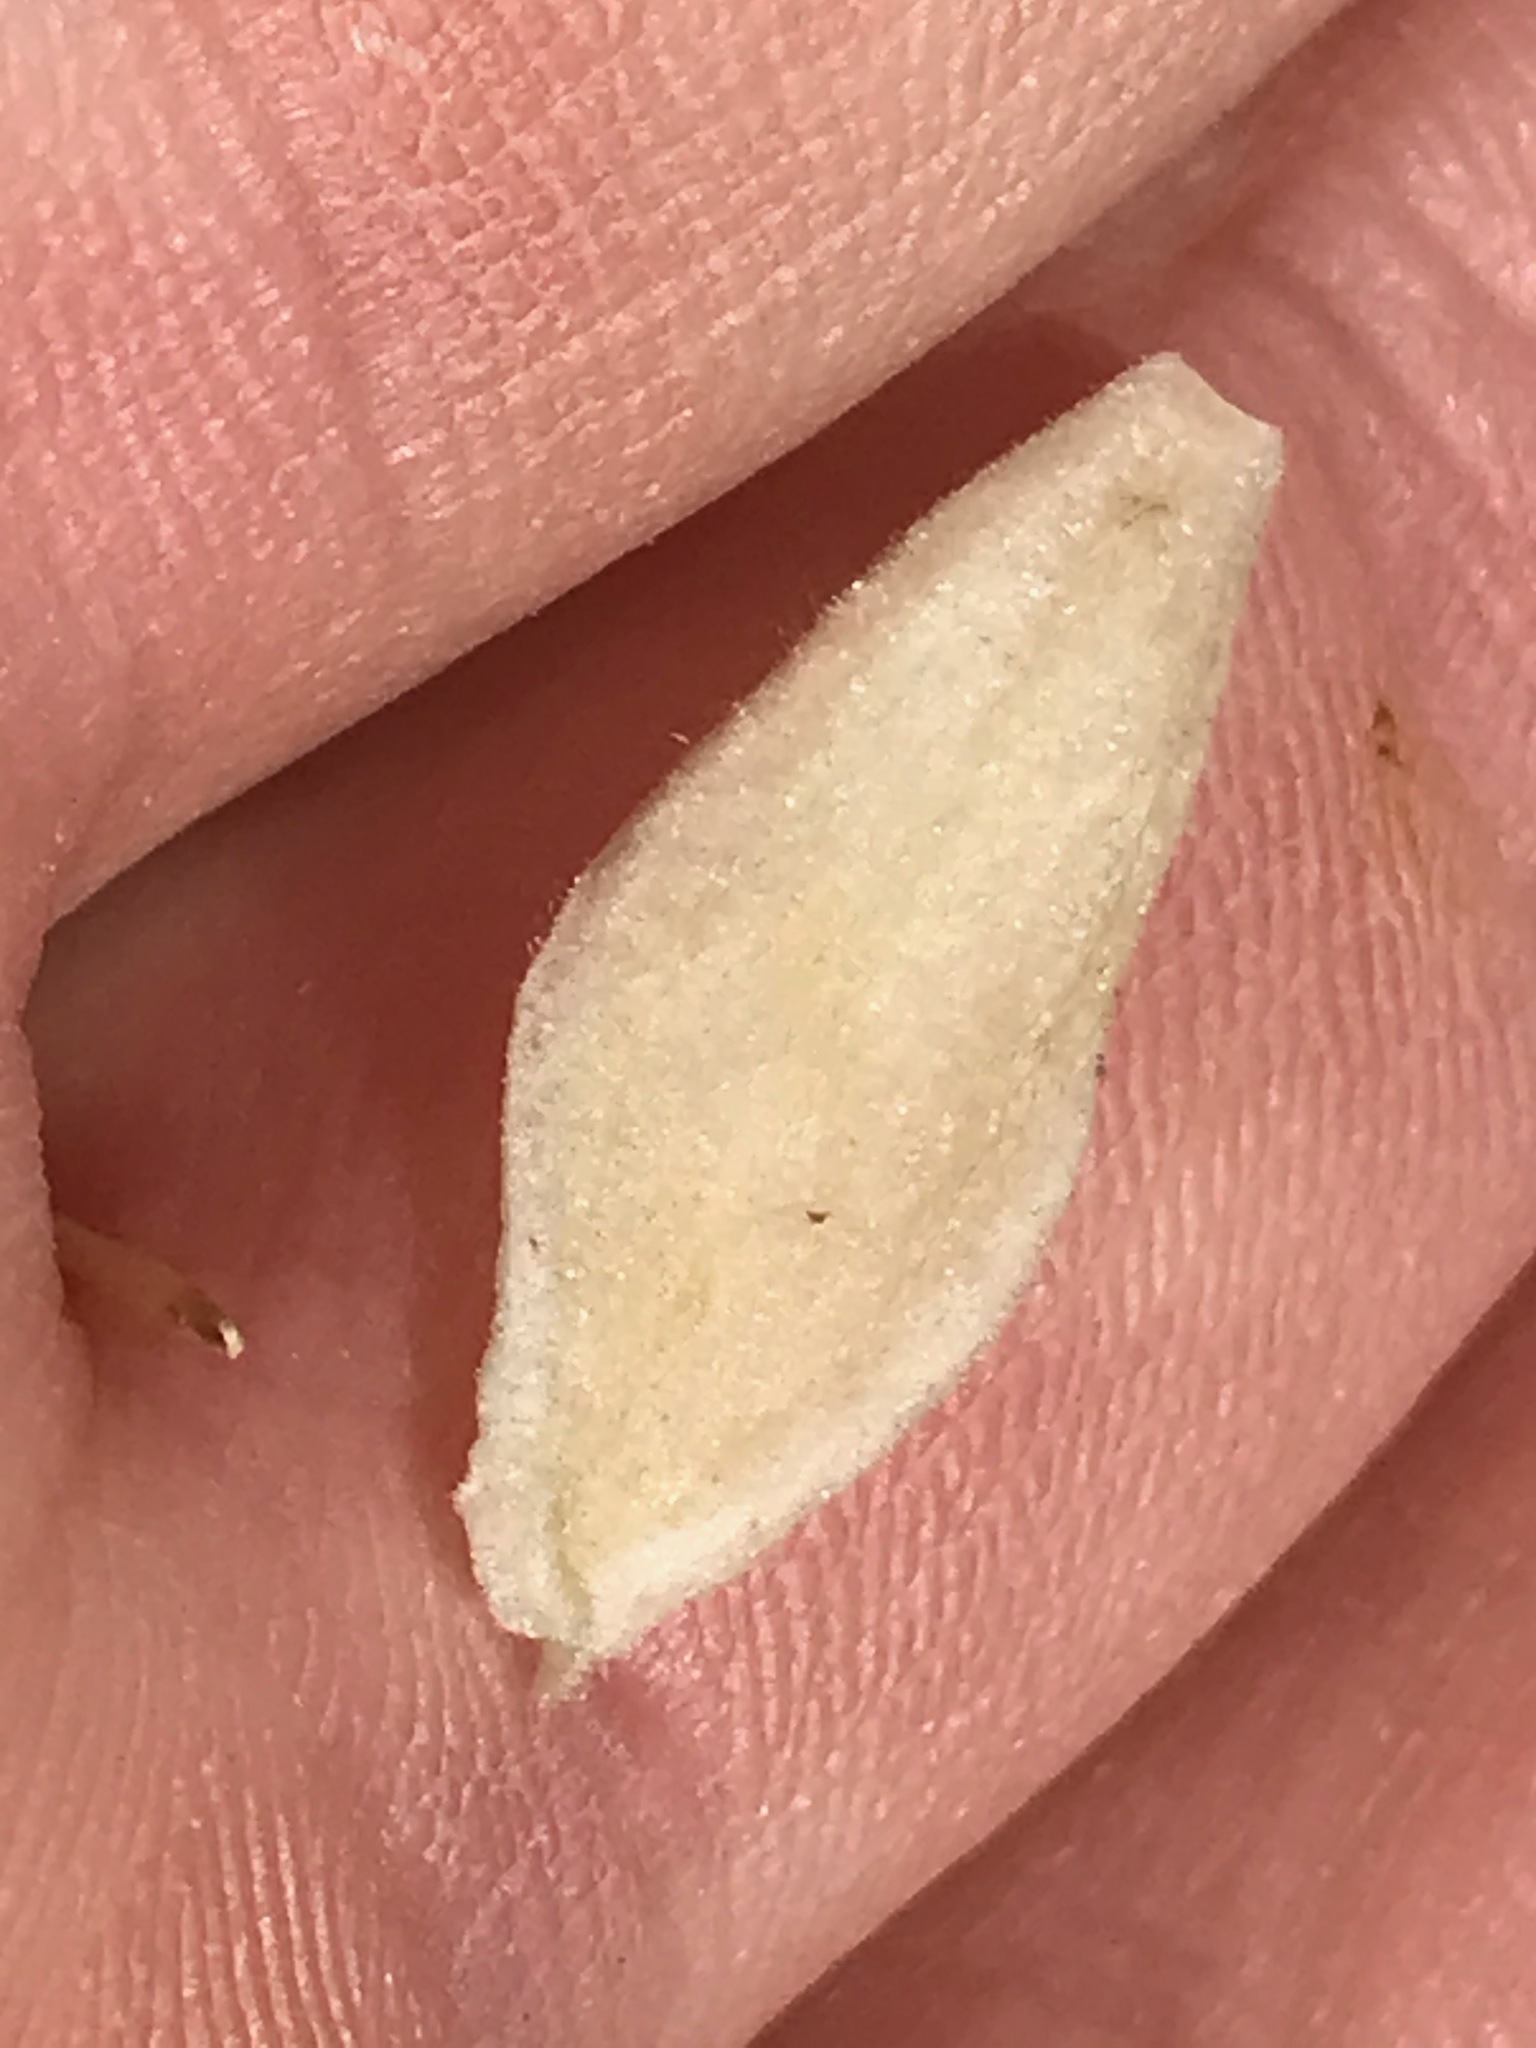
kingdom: Plantae
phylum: Tracheophyta
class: Magnoliopsida
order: Ranunculales
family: Ranunculaceae
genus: Clematis
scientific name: Clematis lasiantha
